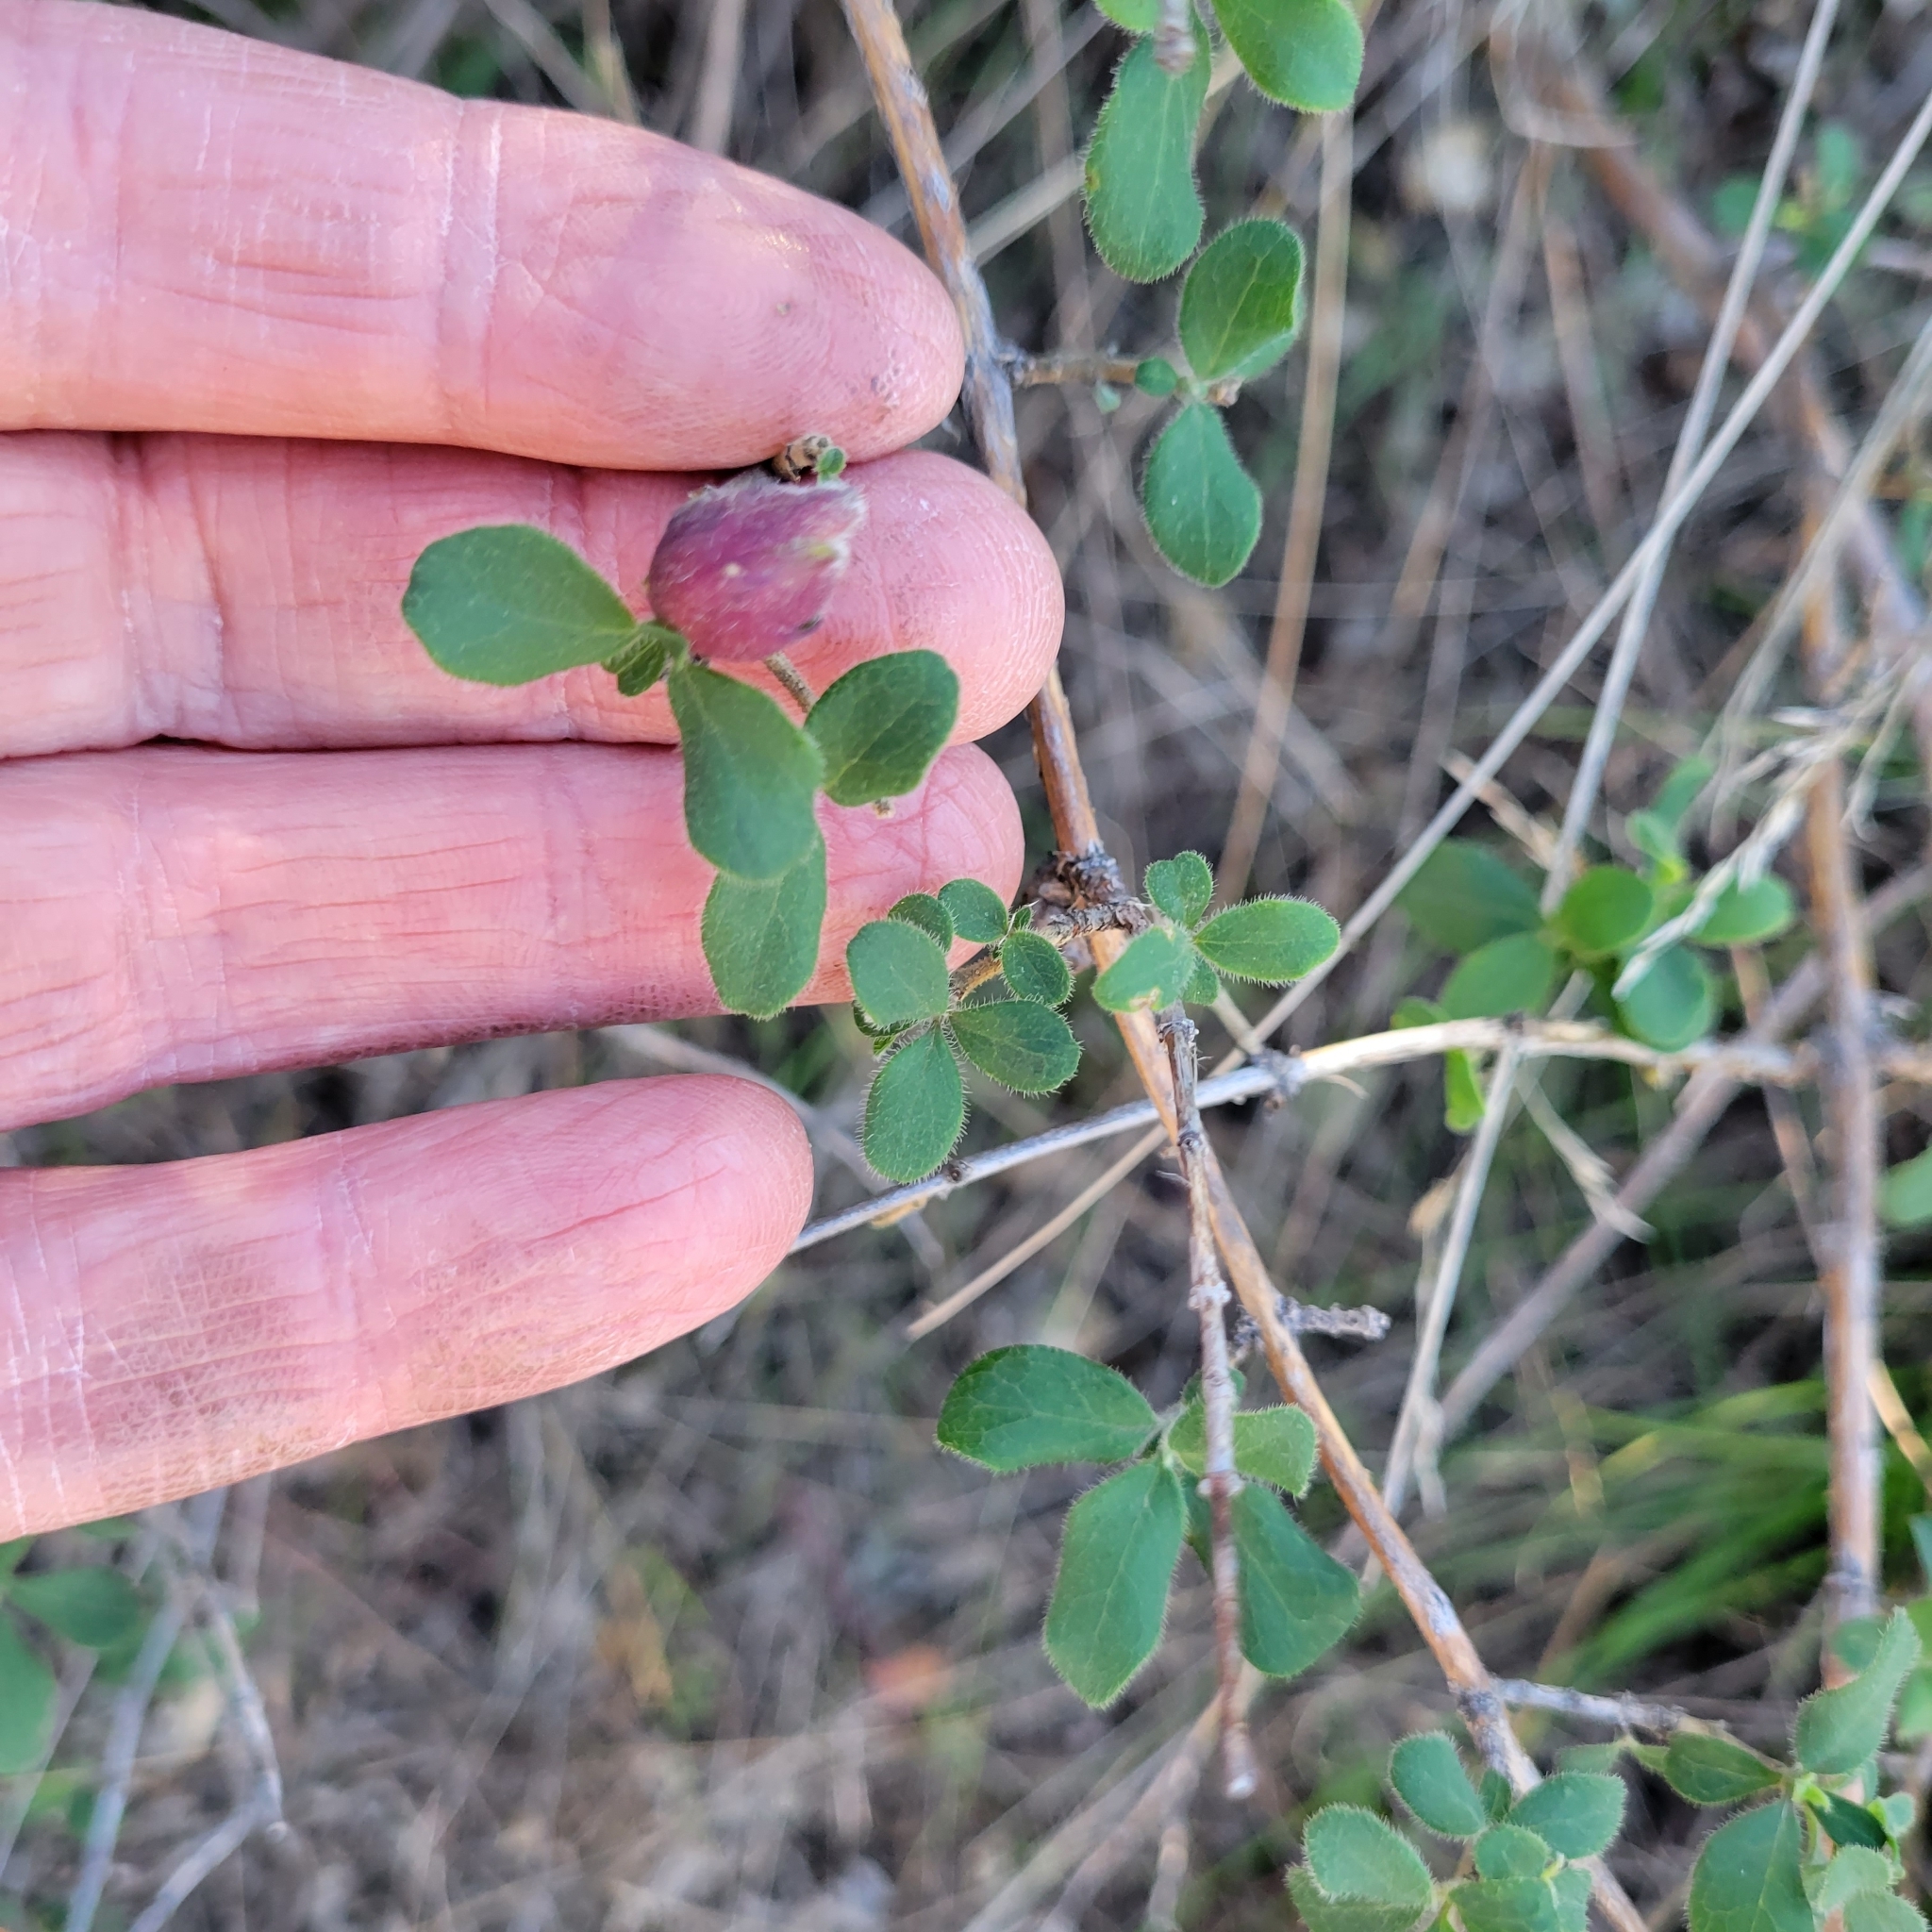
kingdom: Plantae
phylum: Tracheophyta
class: Magnoliopsida
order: Dipsacales
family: Caprifoliaceae
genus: Lonicera
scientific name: Lonicera subspicata
